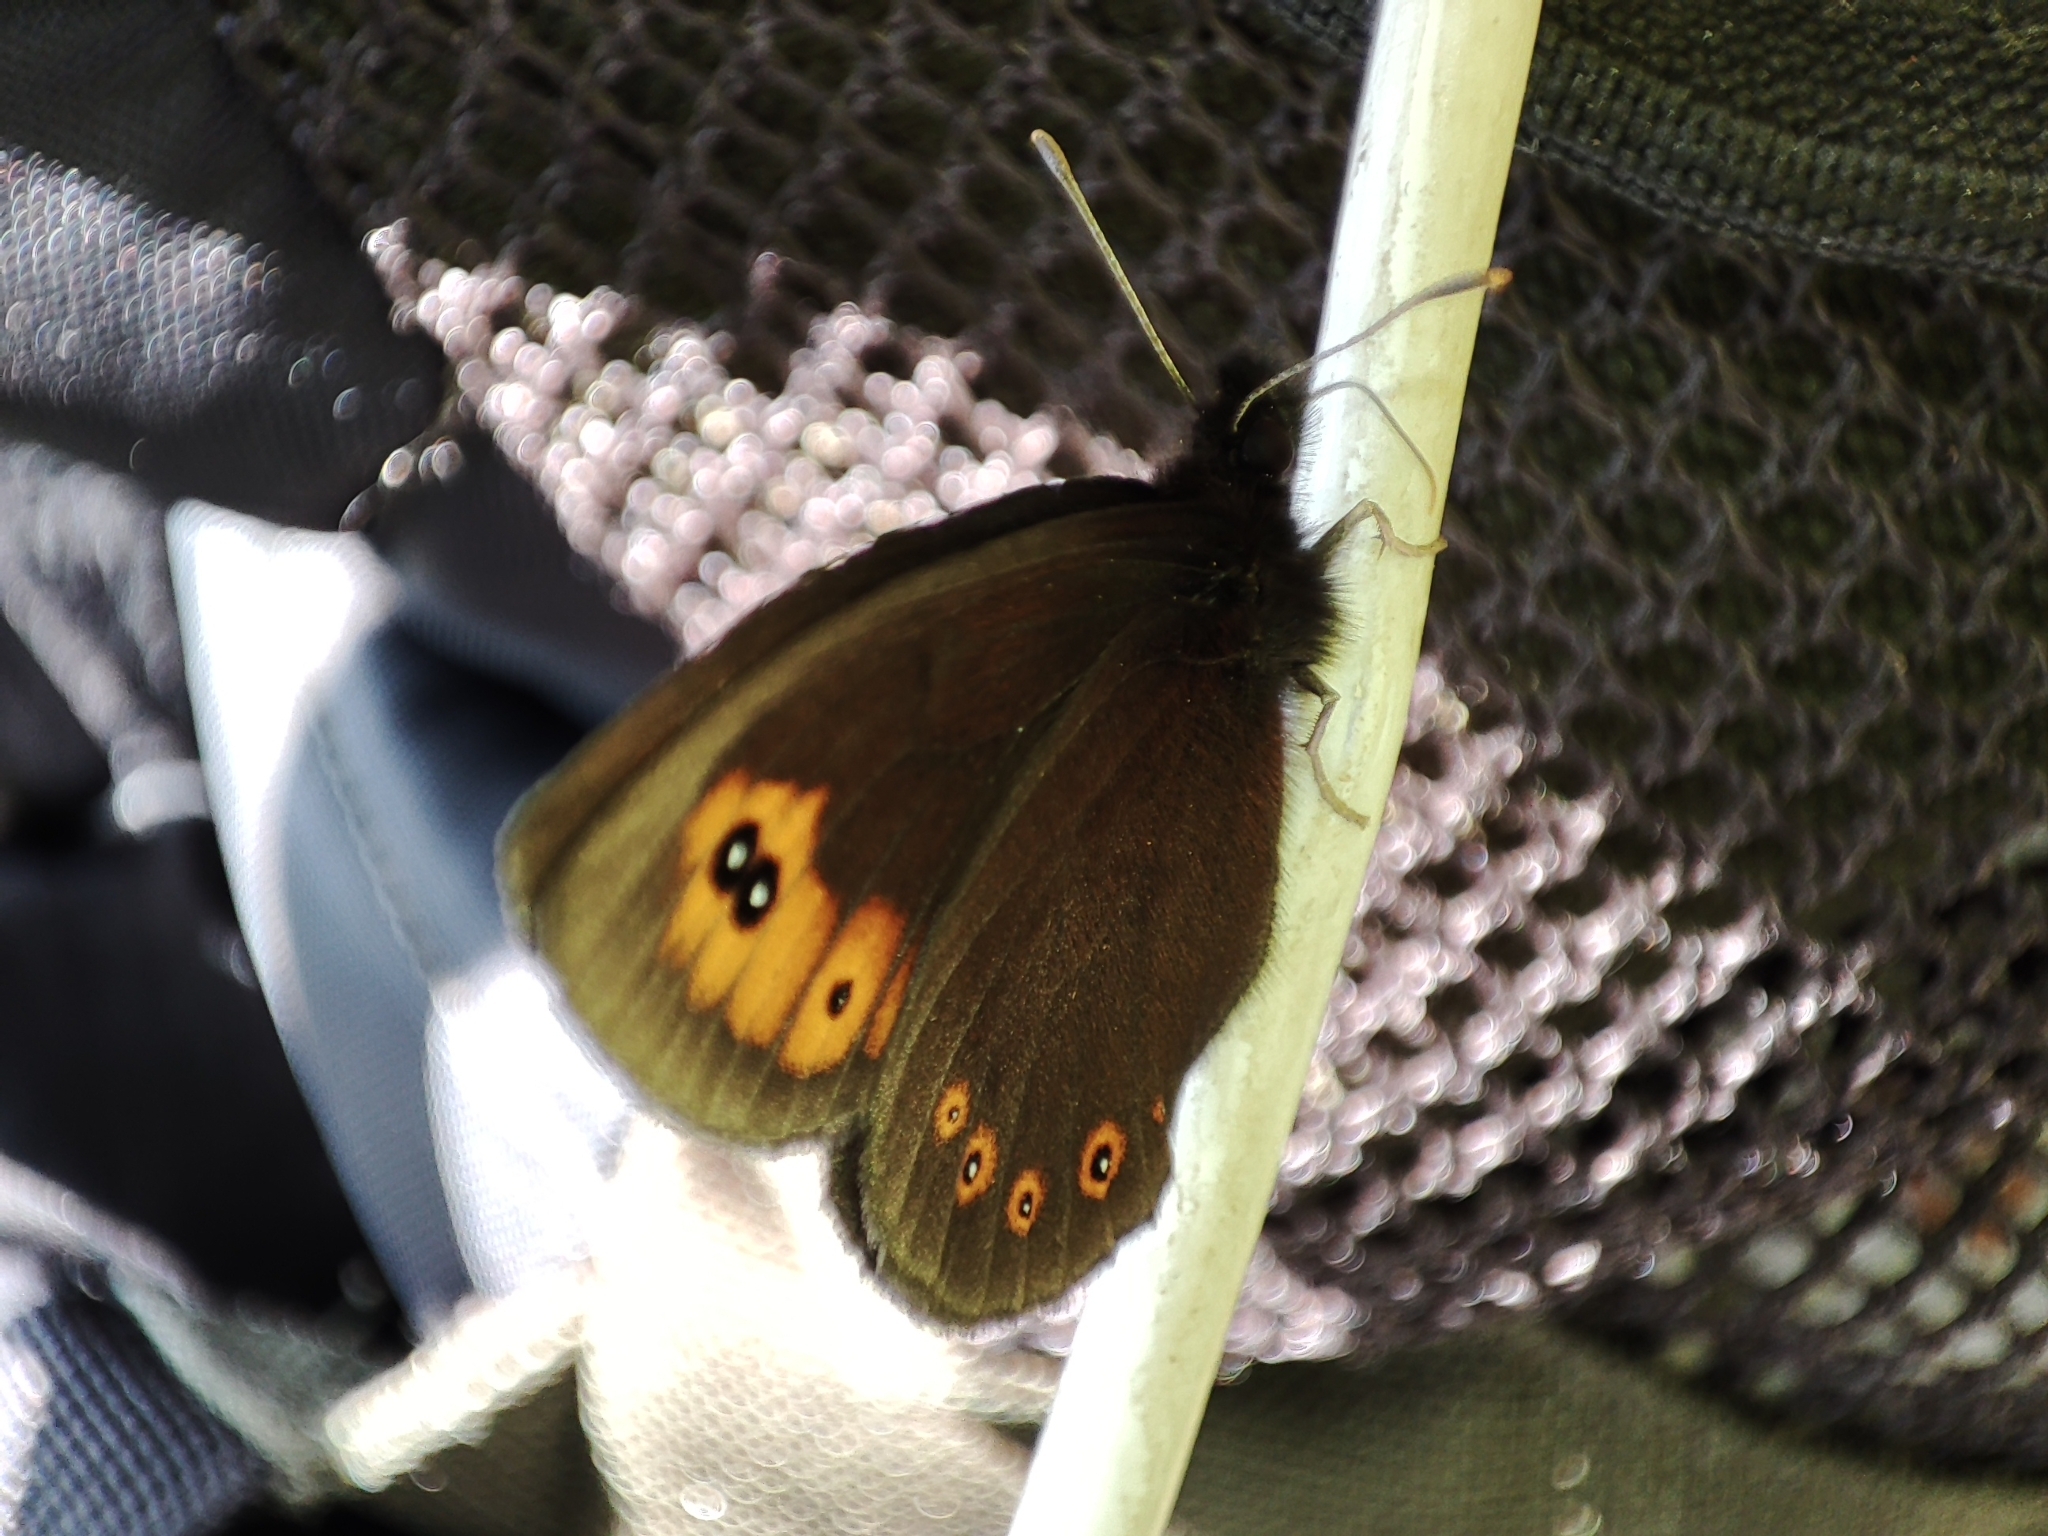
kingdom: Animalia
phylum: Arthropoda
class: Insecta
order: Lepidoptera
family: Nymphalidae
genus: Erebia
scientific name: Erebia medusa
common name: Woodland ringlet
